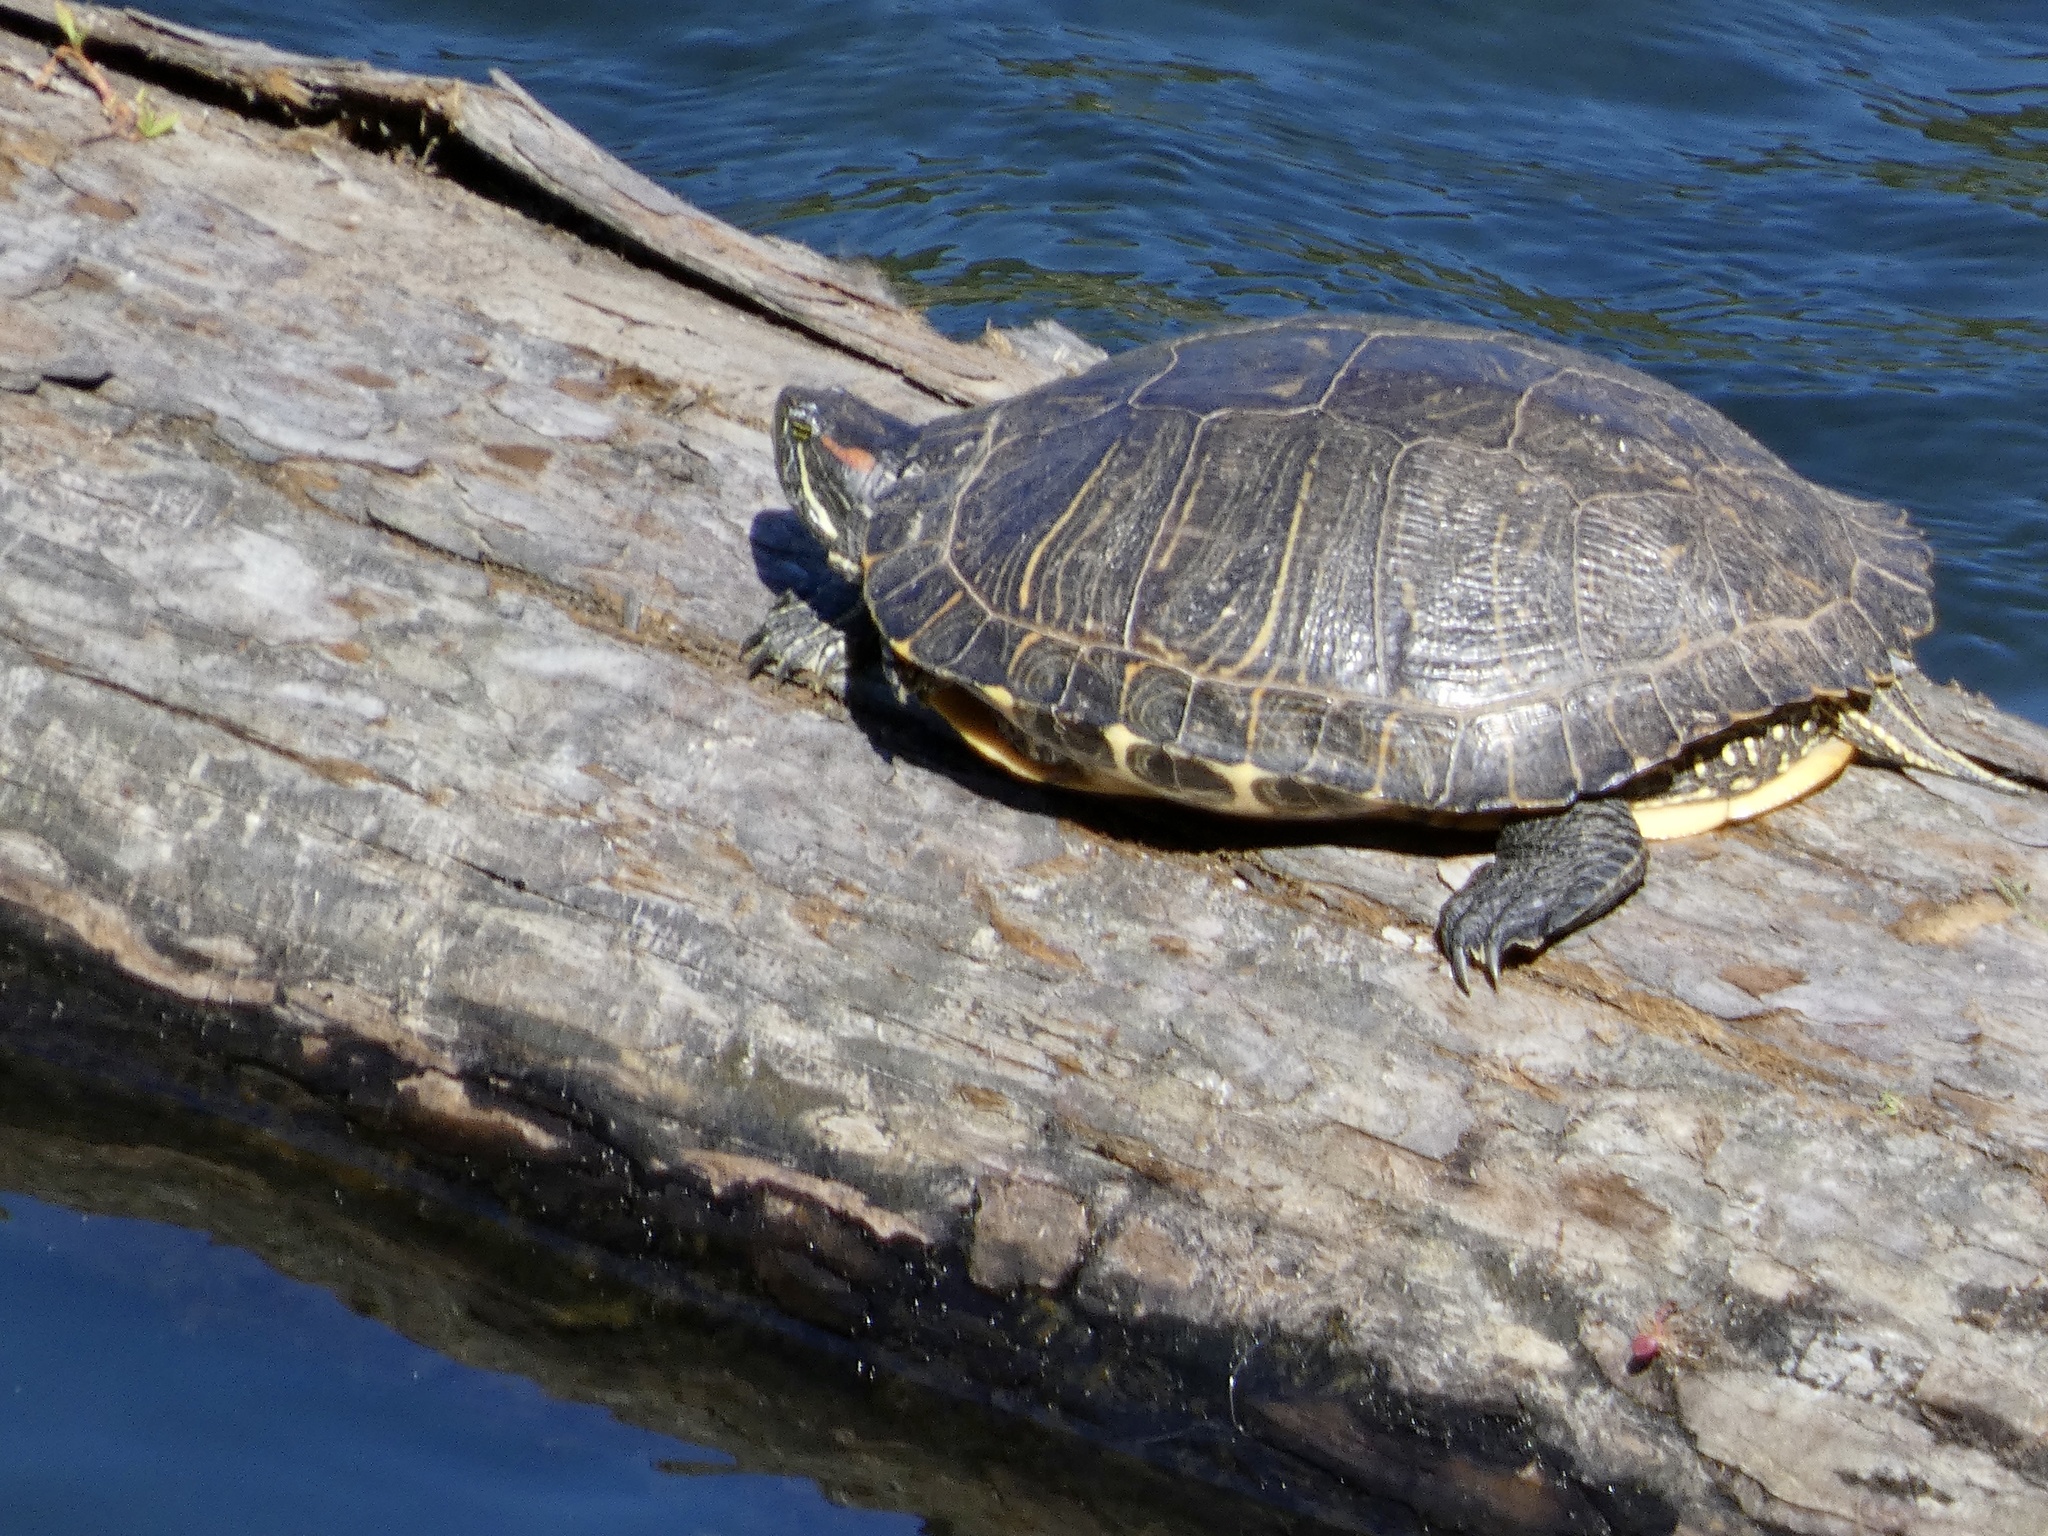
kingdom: Animalia
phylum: Chordata
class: Testudines
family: Emydidae
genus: Trachemys
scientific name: Trachemys scripta
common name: Slider
